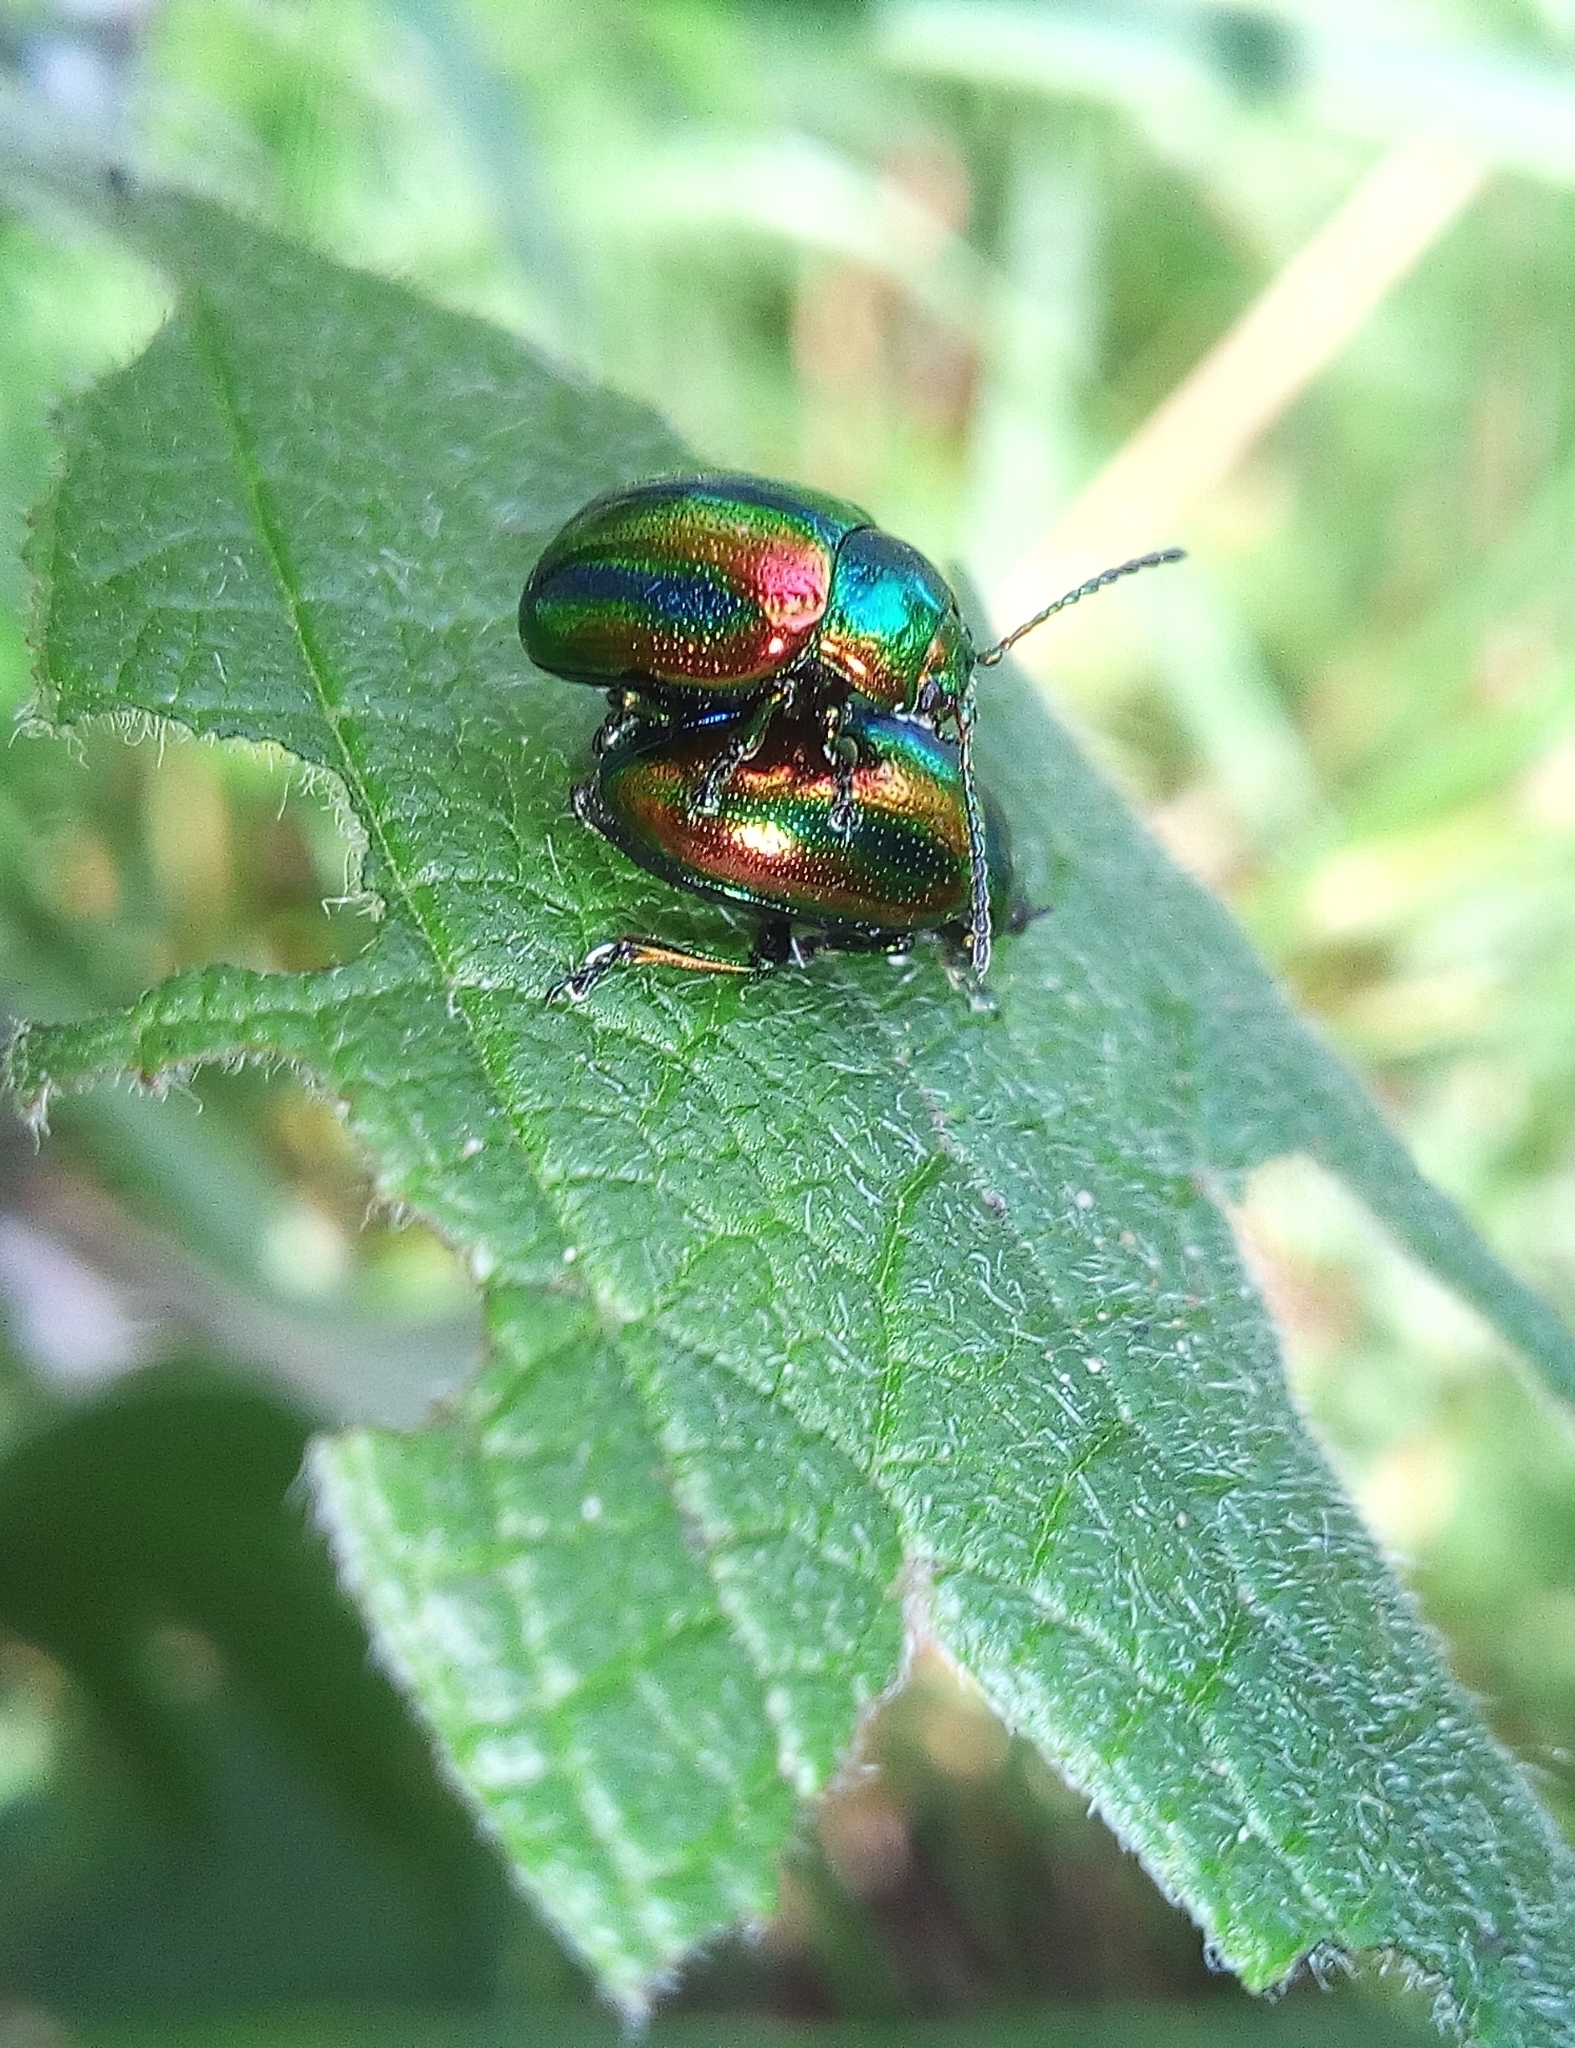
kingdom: Animalia
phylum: Arthropoda
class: Insecta
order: Coleoptera
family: Chrysomelidae
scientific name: Chrysomelidae
